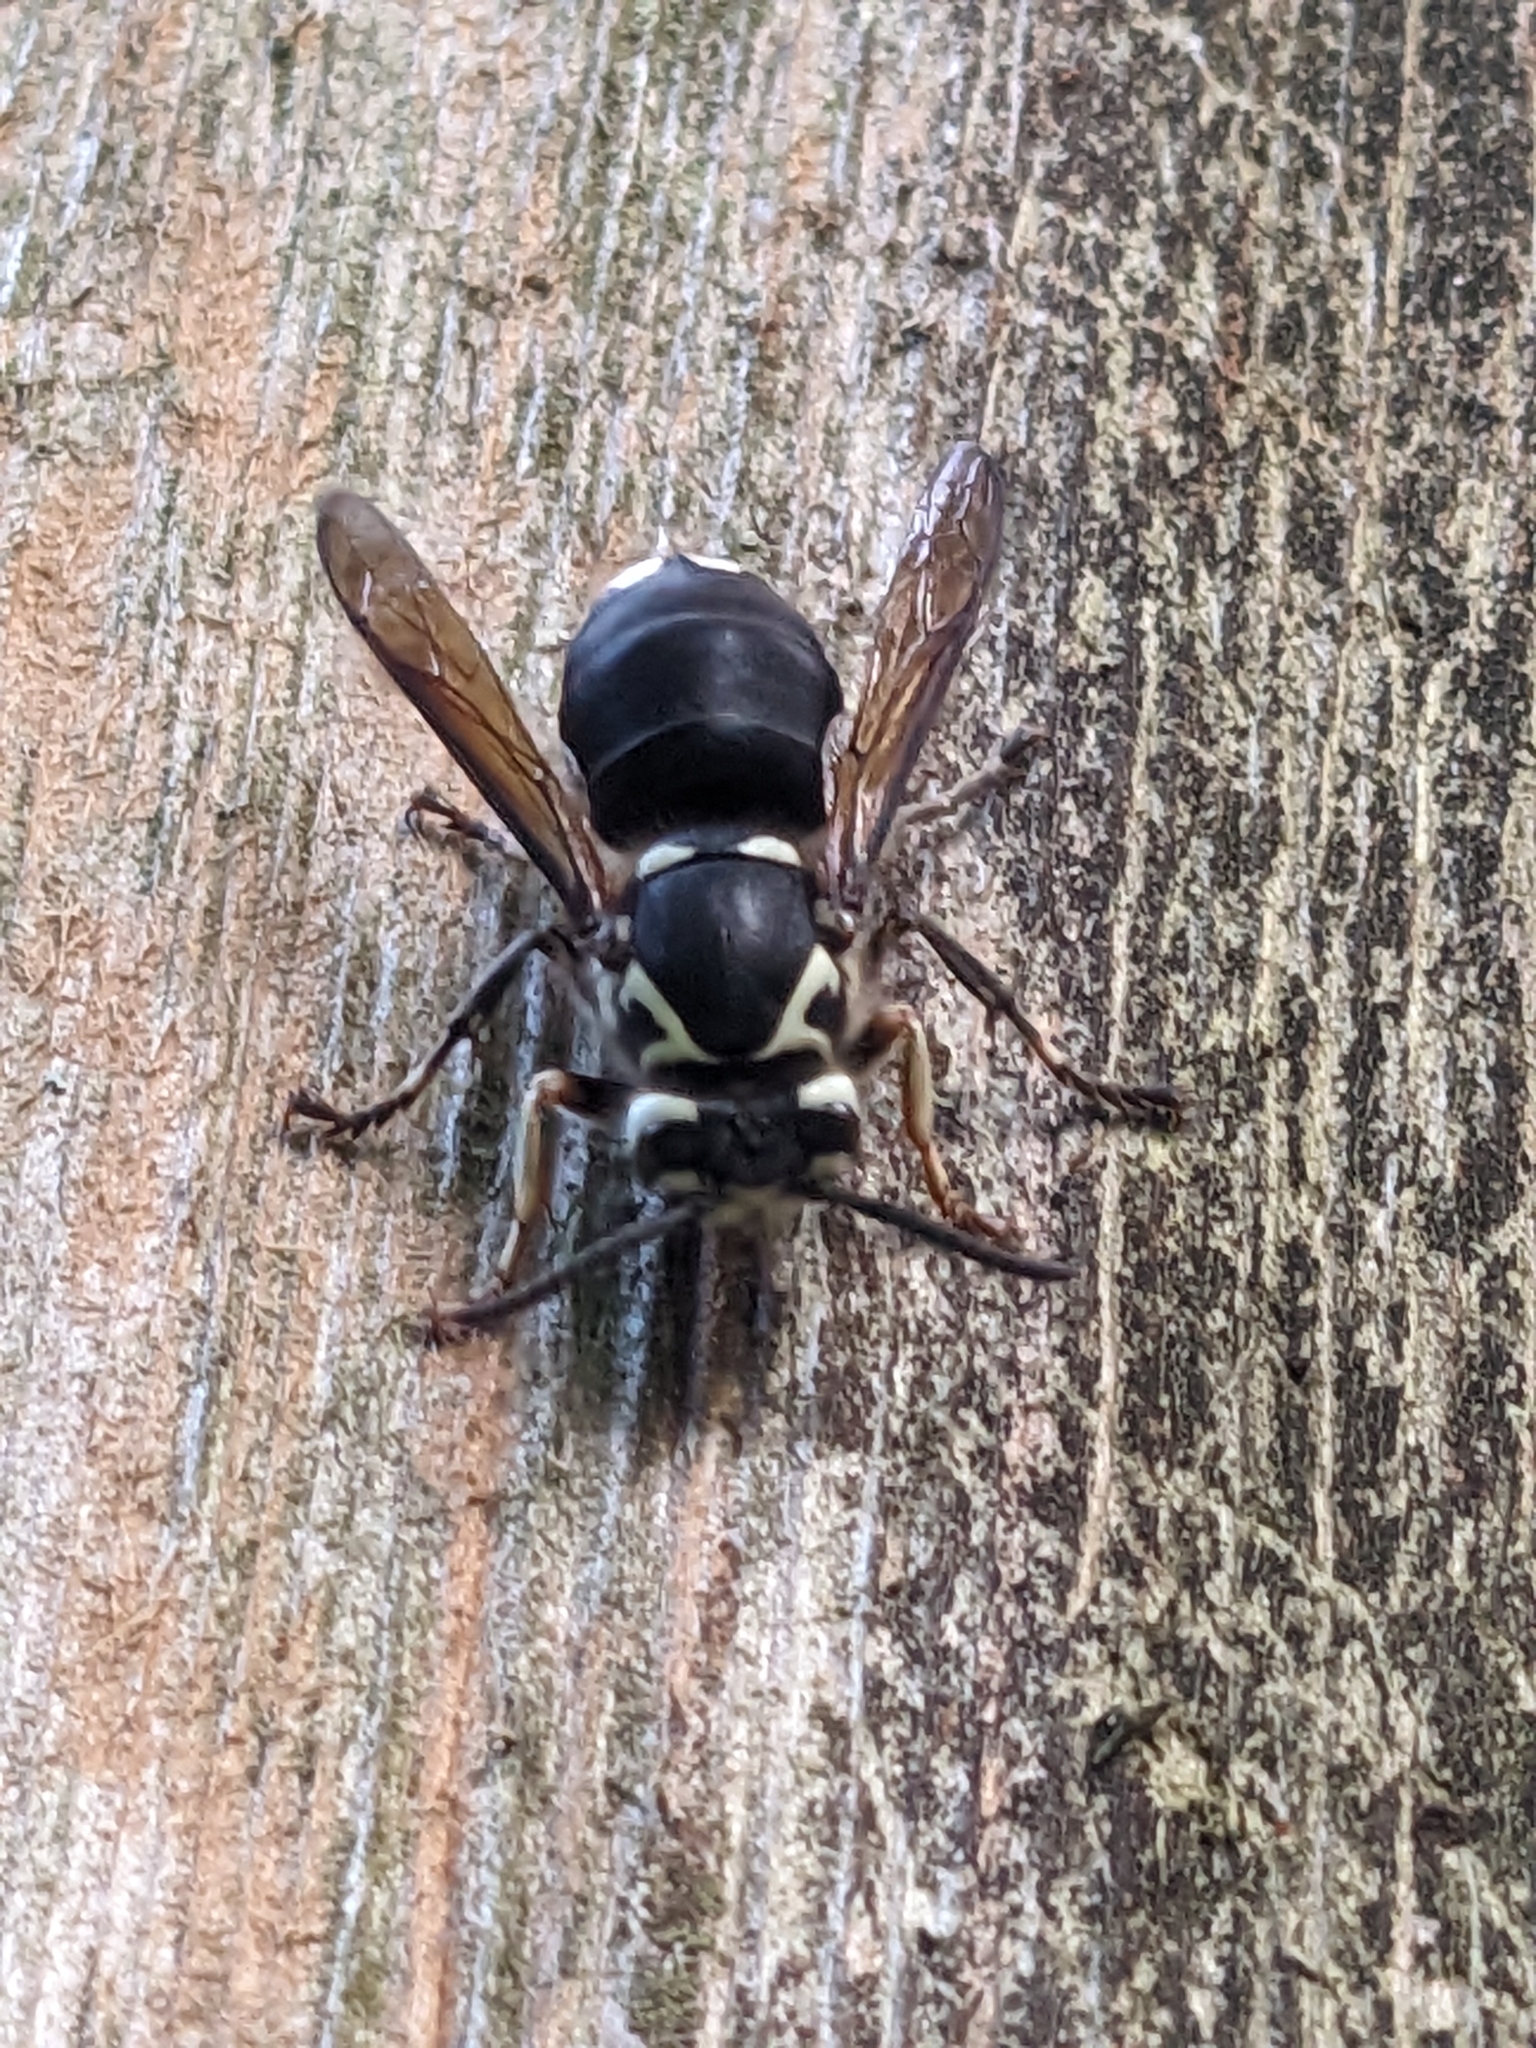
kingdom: Animalia
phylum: Arthropoda
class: Insecta
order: Hymenoptera
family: Vespidae
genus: Dolichovespula
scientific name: Dolichovespula maculata
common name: Bald-faced hornet
